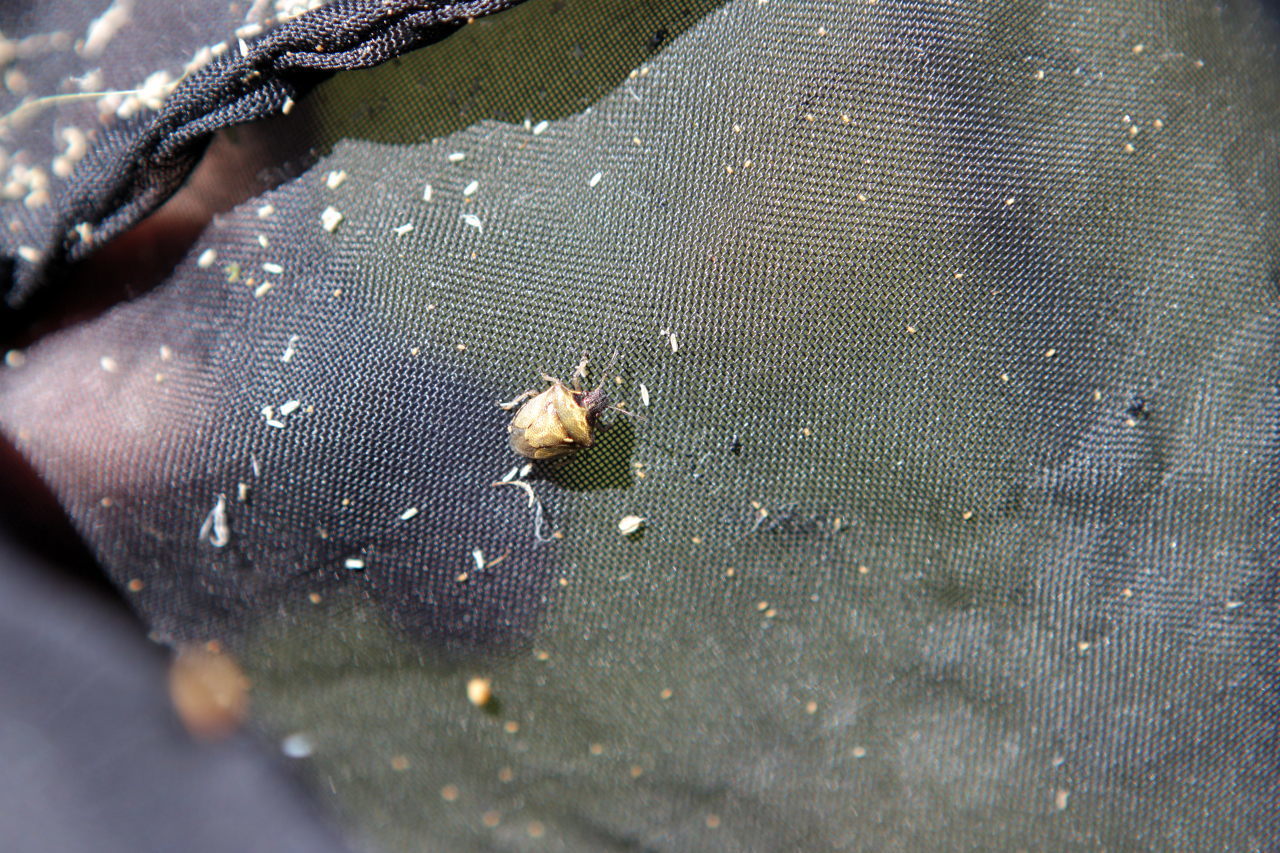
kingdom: Animalia
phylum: Arthropoda
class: Insecta
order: Hemiptera
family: Pentatomidae
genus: Eysarcoris
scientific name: Eysarcoris aeneus
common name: New forest shieldbug
